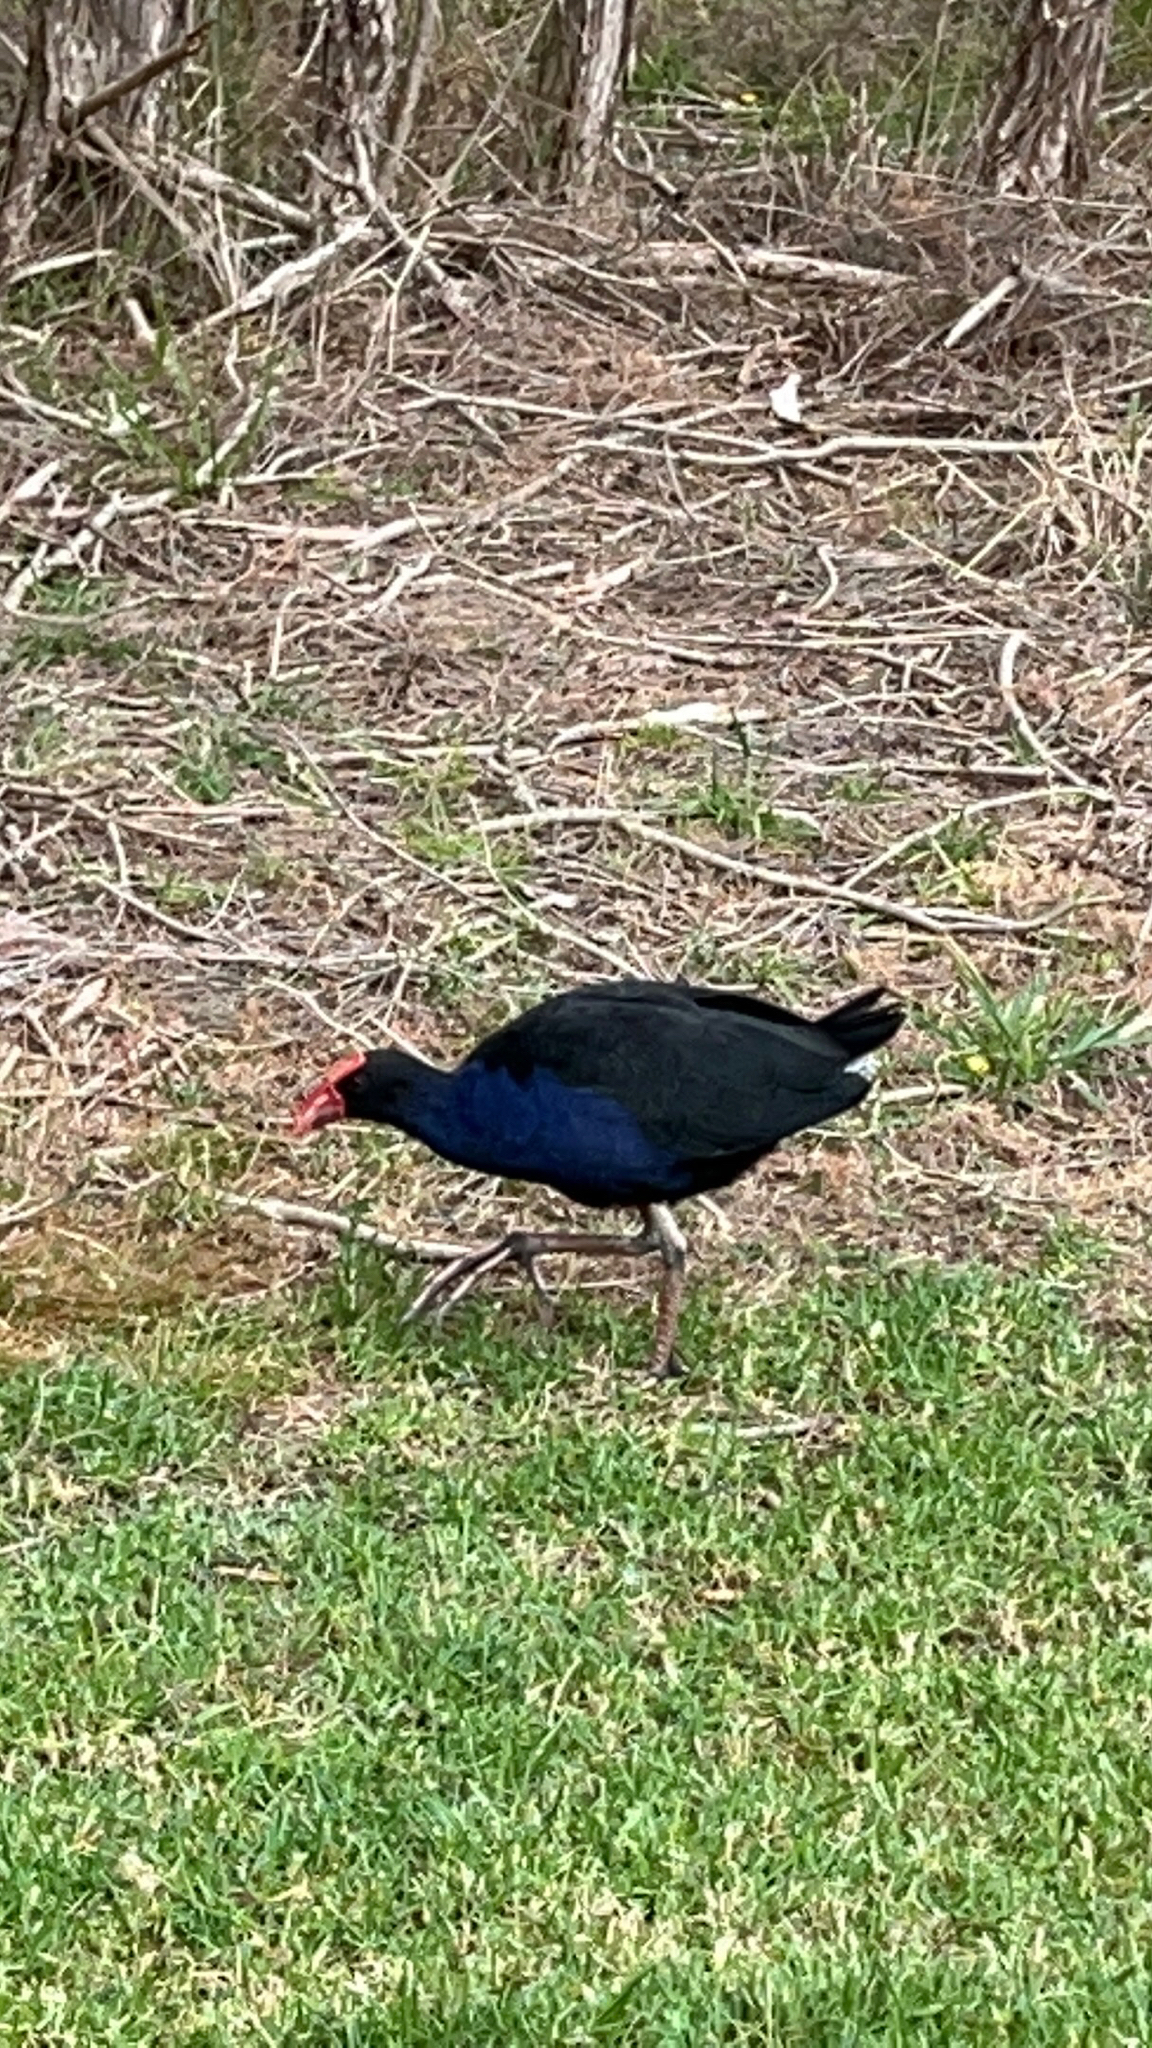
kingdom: Animalia
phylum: Chordata
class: Aves
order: Gruiformes
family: Rallidae
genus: Porphyrio
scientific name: Porphyrio melanotus
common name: Australasian swamphen
